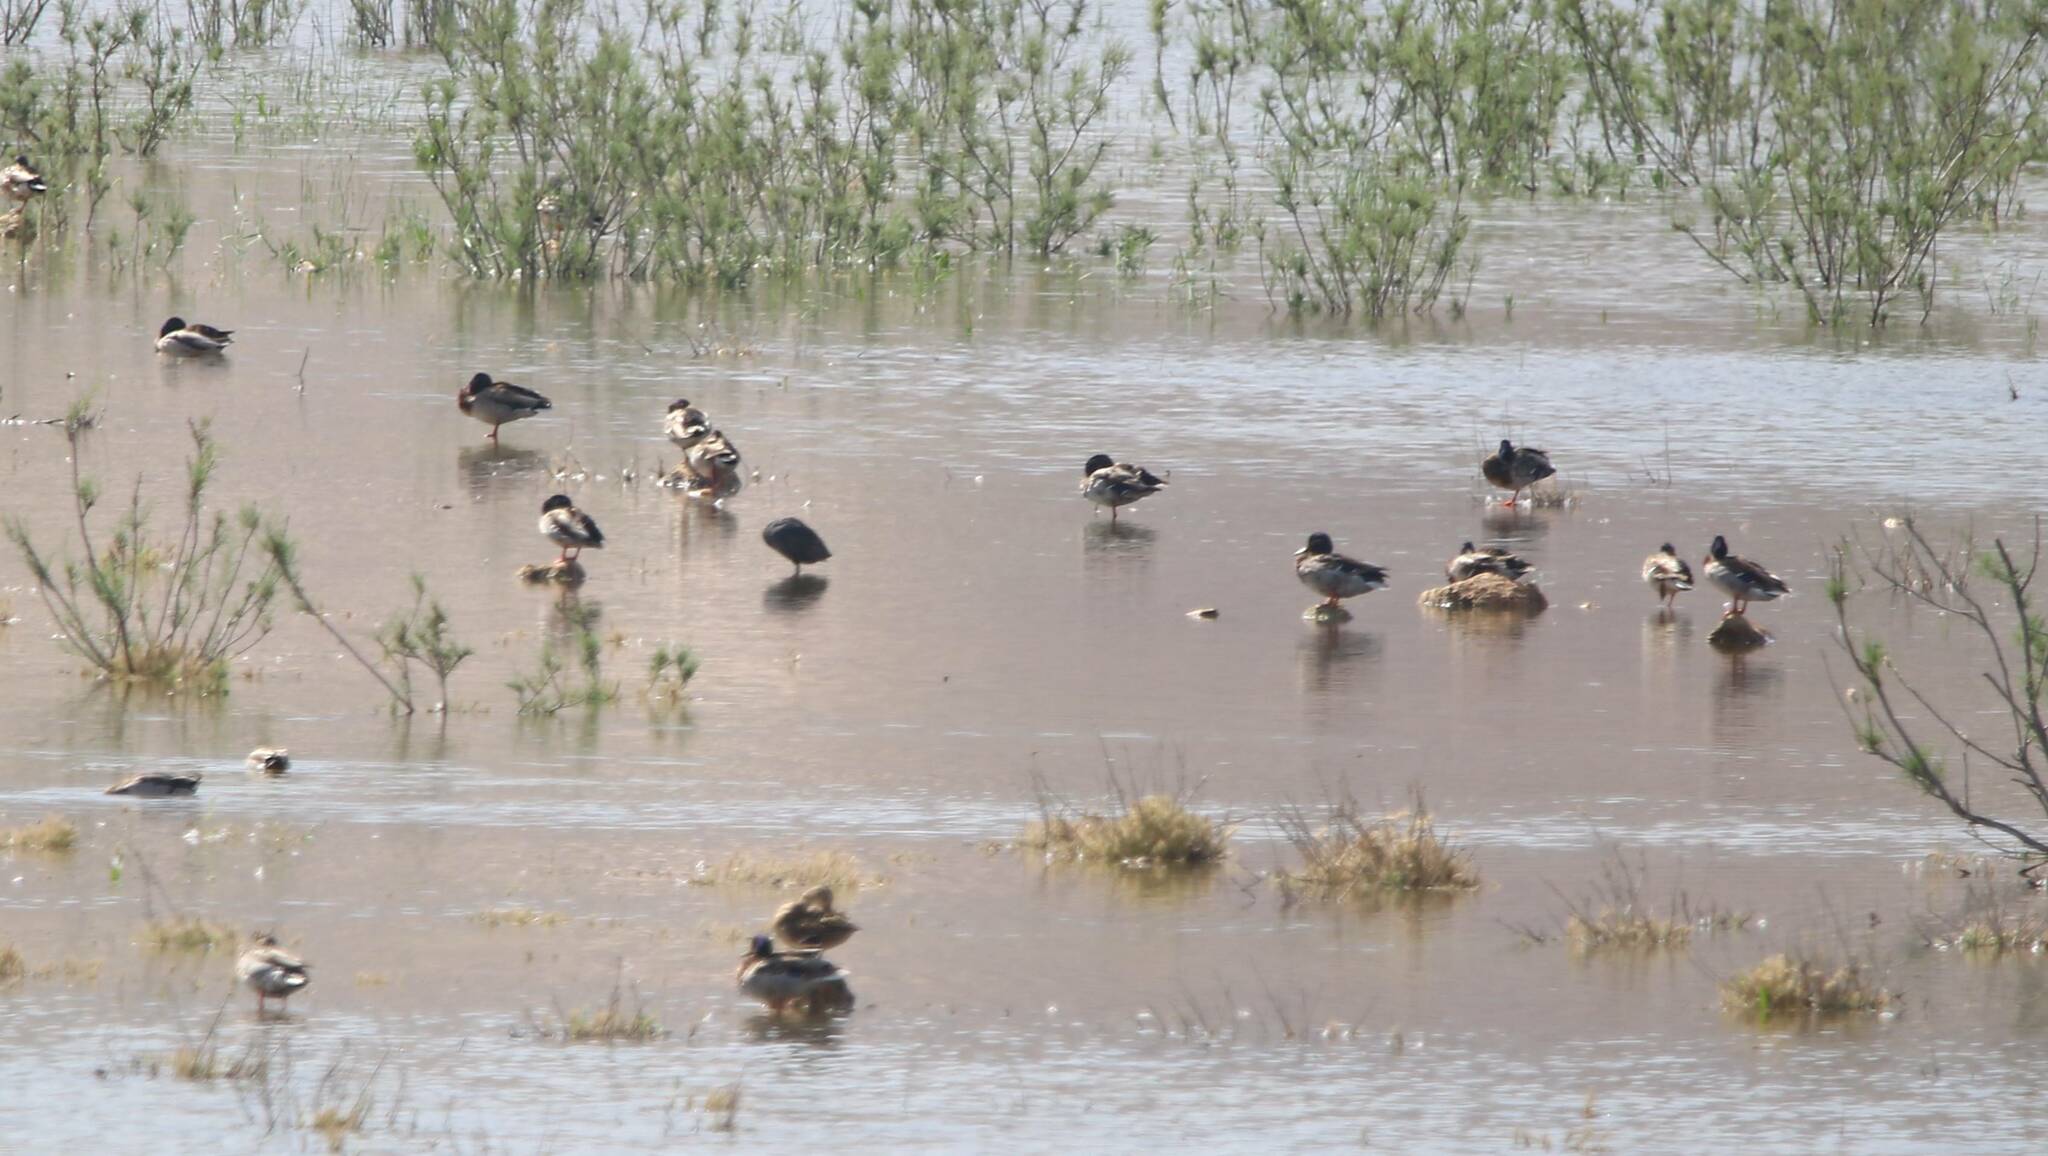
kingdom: Animalia
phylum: Chordata
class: Aves
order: Anseriformes
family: Anatidae
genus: Anas
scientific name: Anas platyrhynchos
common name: Mallard
